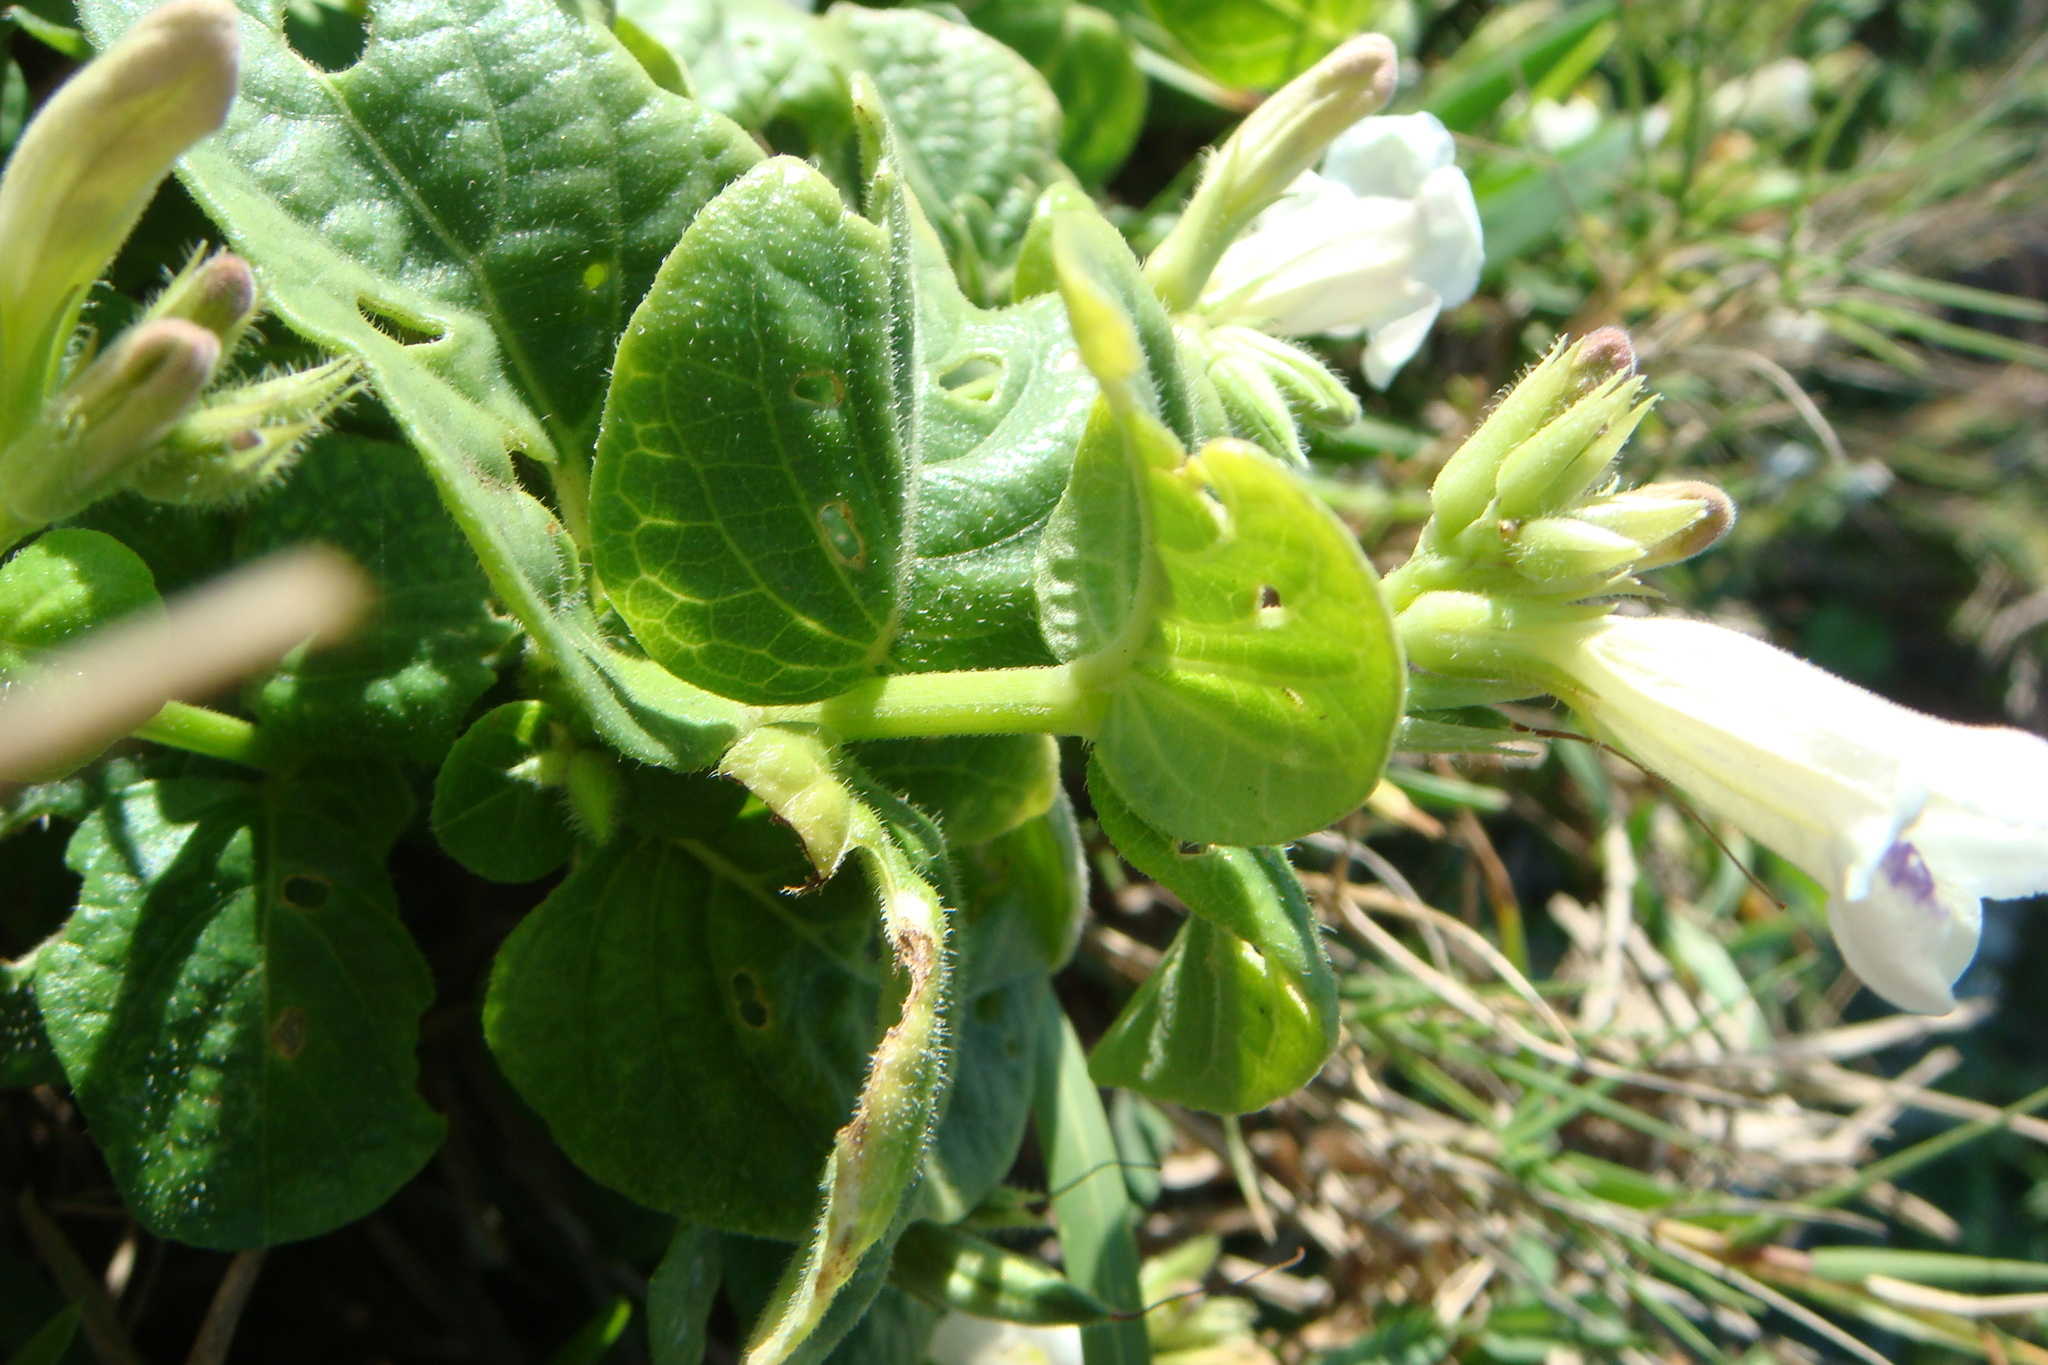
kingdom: Plantae
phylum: Tracheophyta
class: Magnoliopsida
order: Lamiales
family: Acanthaceae
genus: Asystasia
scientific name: Asystasia intrusa
